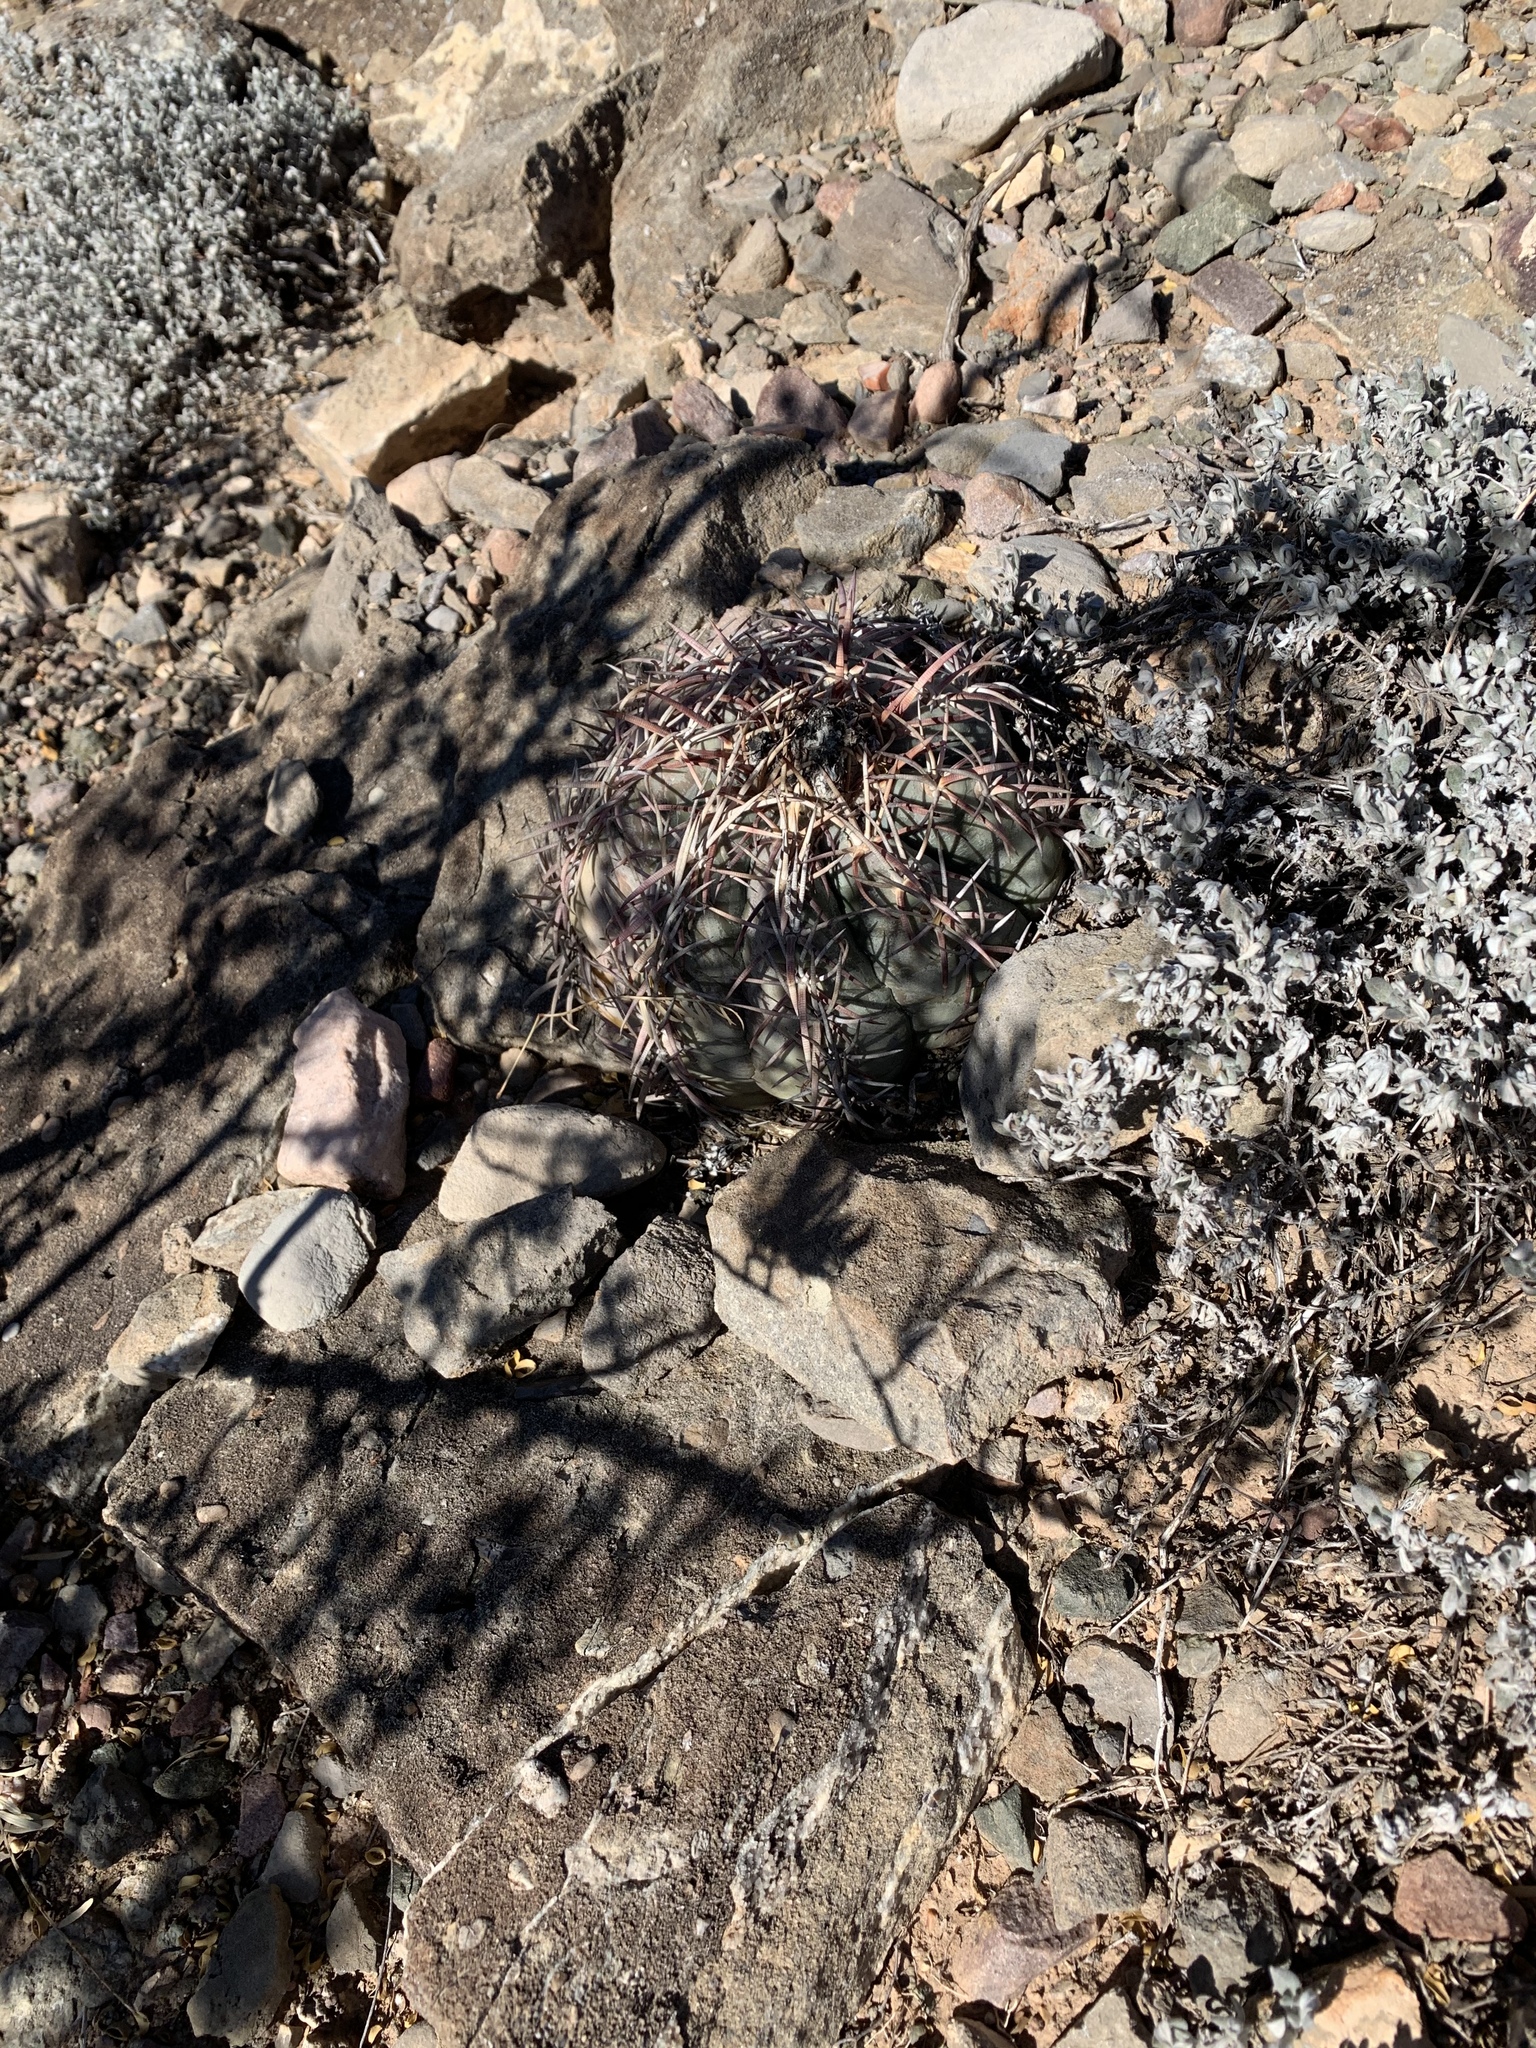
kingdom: Plantae
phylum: Tracheophyta
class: Magnoliopsida
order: Caryophyllales
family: Cactaceae
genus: Echinocactus
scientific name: Echinocactus horizonthalonius
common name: Devilshead
